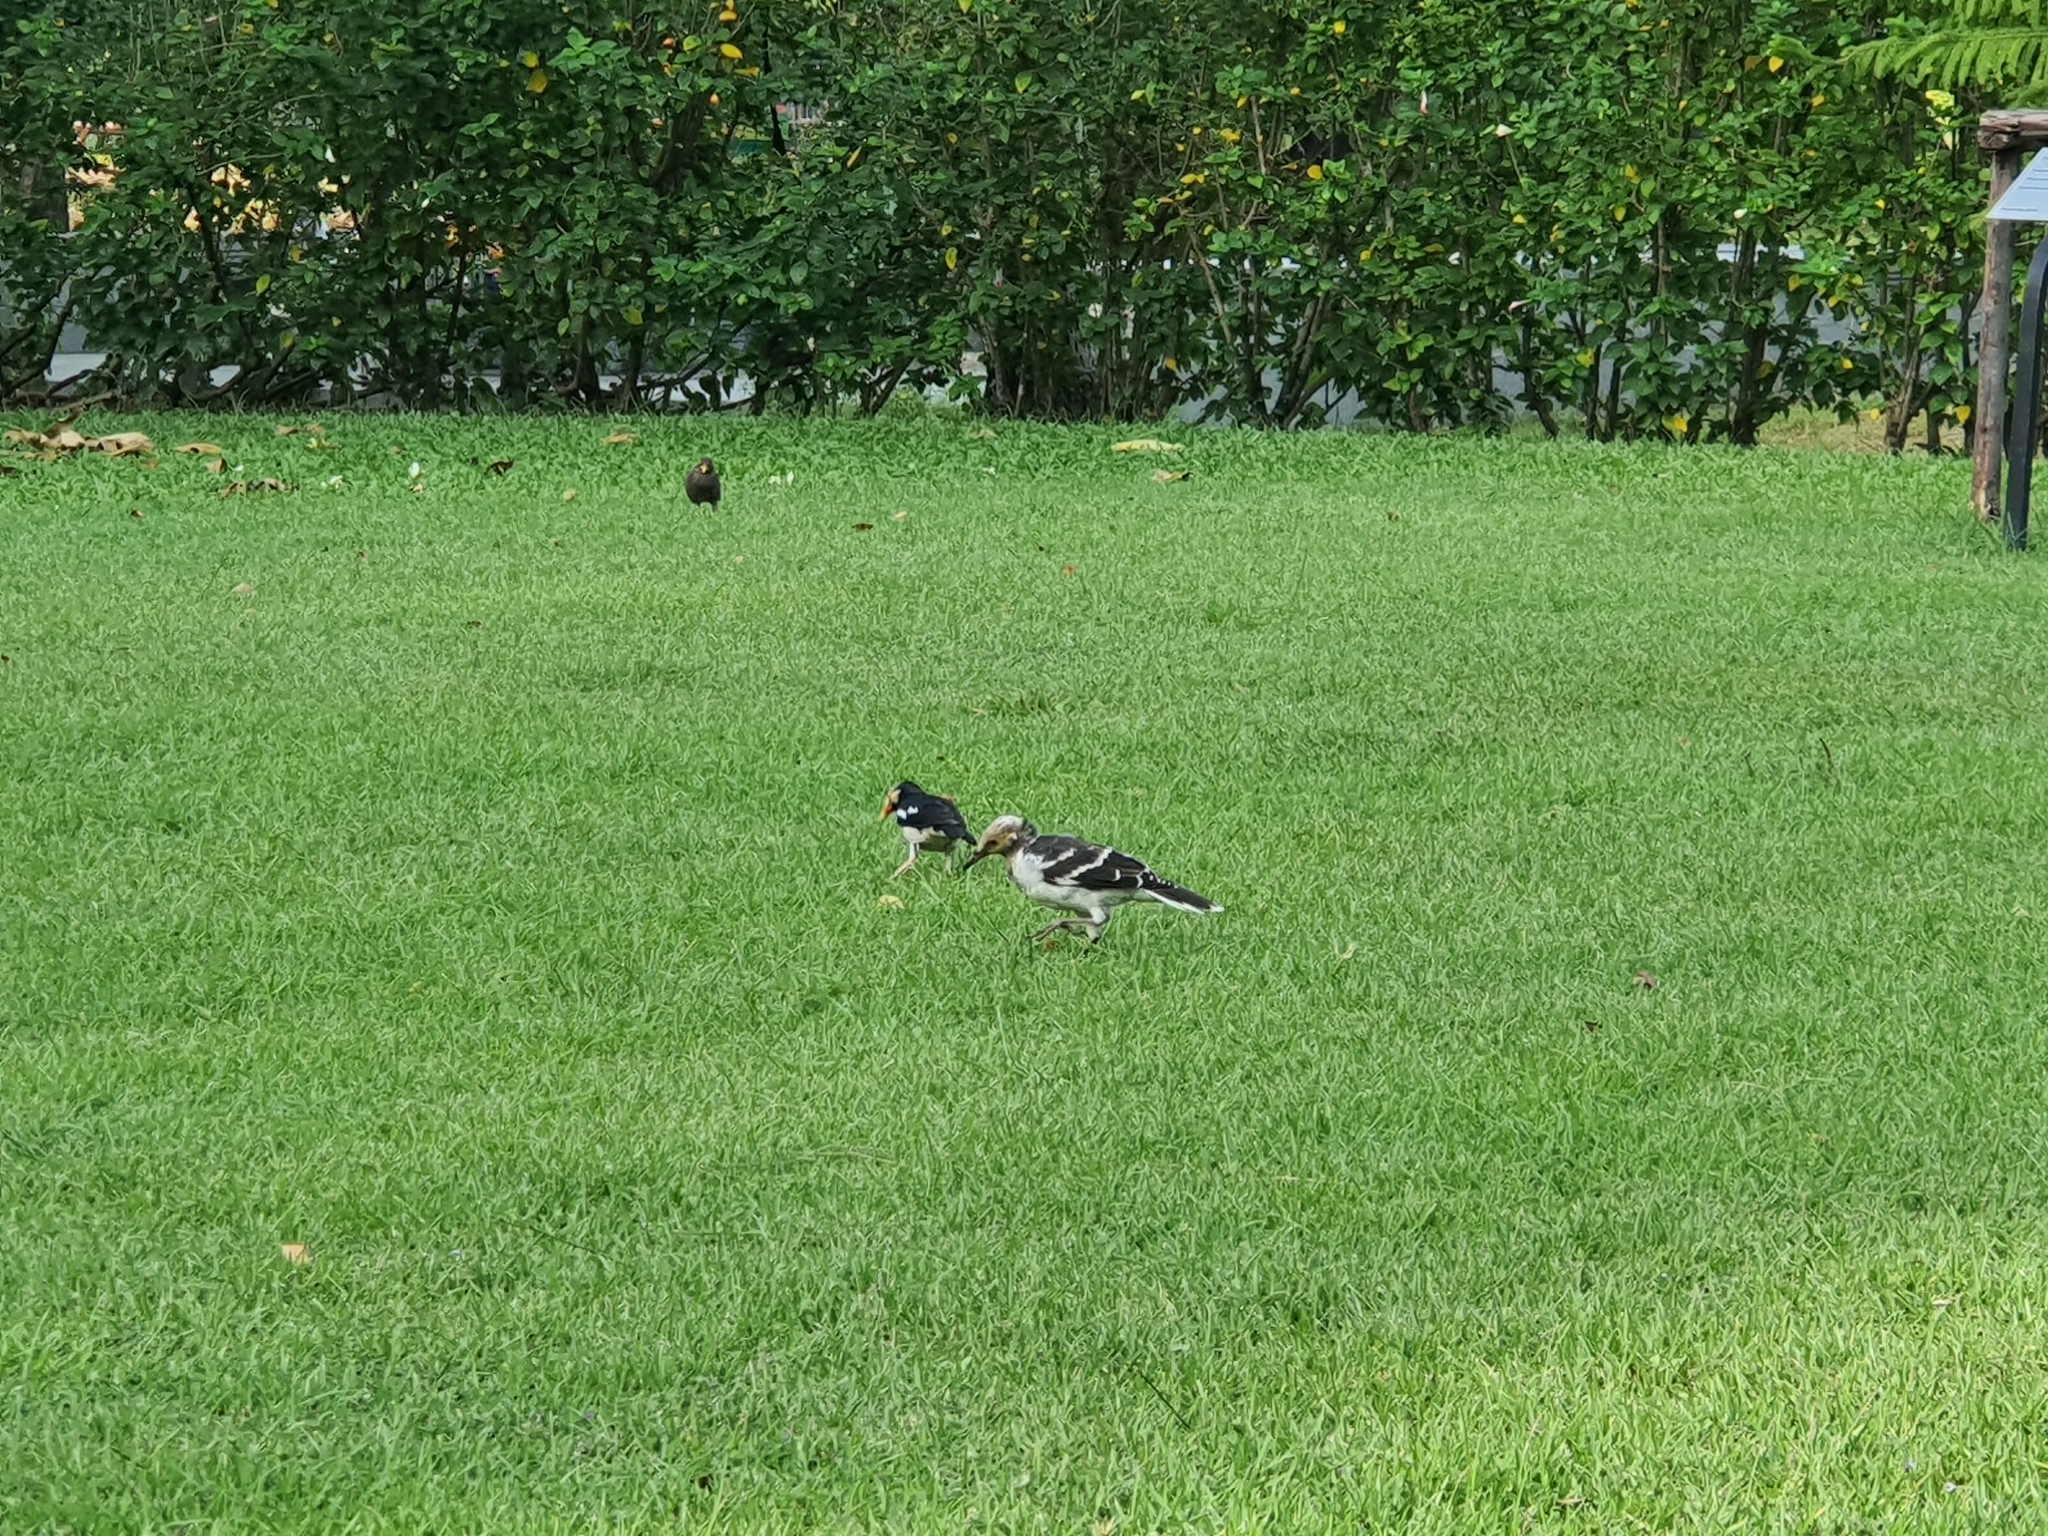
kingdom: Animalia
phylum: Chordata
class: Aves
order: Passeriformes
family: Sturnidae
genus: Gracupica
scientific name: Gracupica contra
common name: Pied myna
